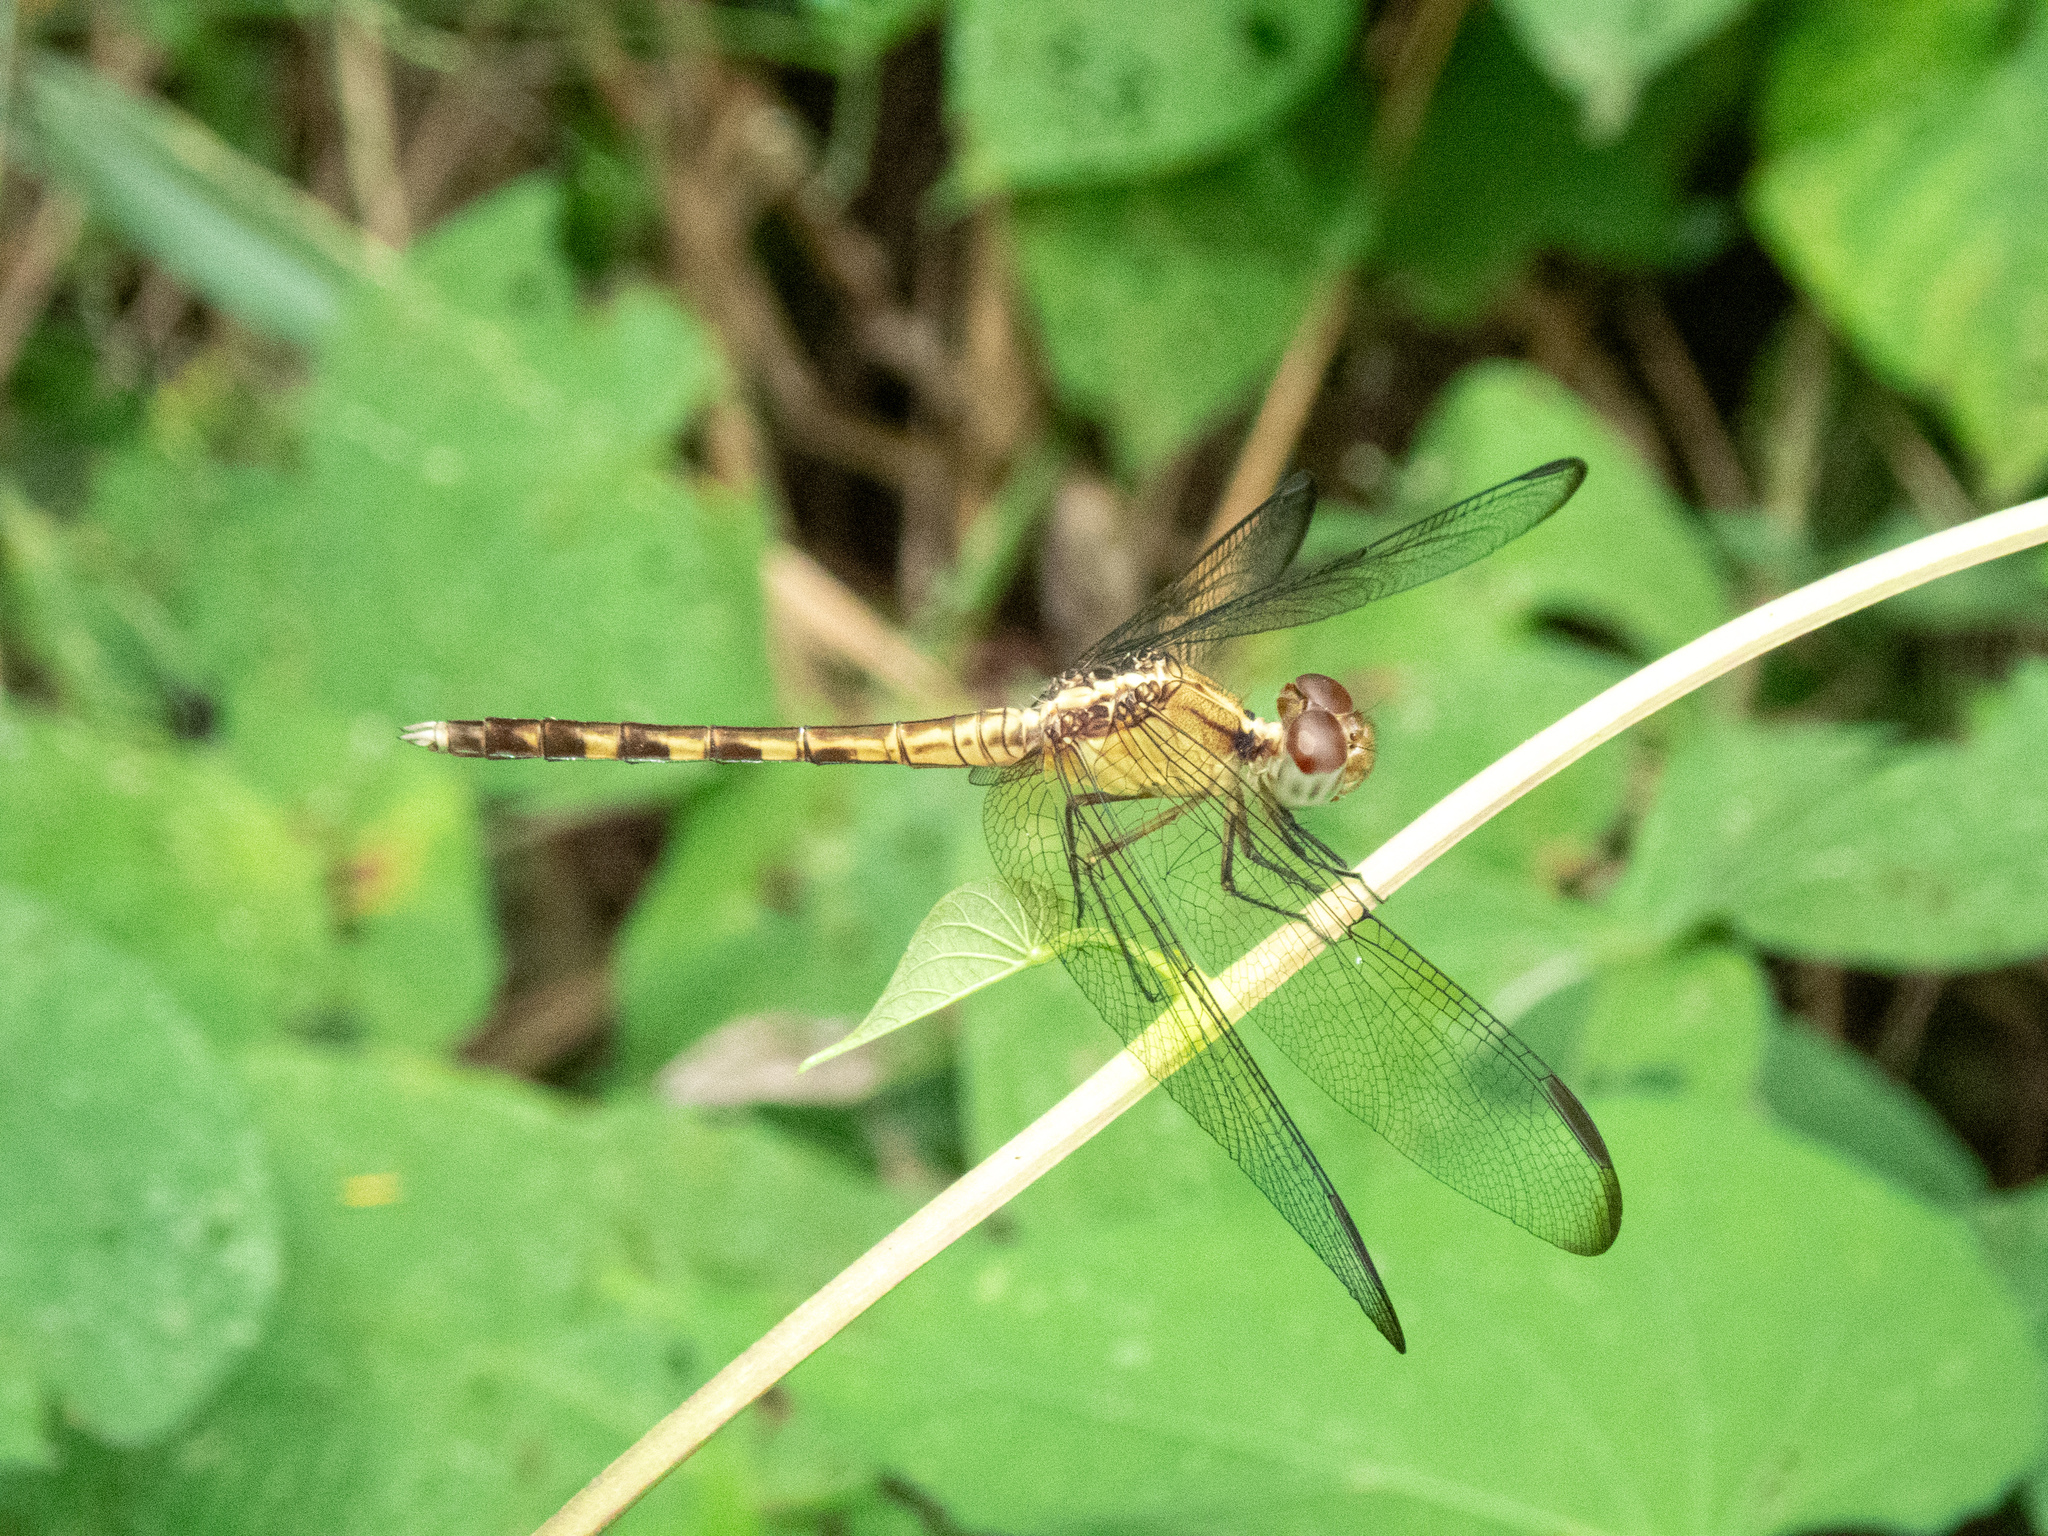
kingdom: Animalia
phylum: Arthropoda
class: Insecta
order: Odonata
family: Libellulidae
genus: Erythrodiplax
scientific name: Erythrodiplax funerea
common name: Black-winged dragonlet
